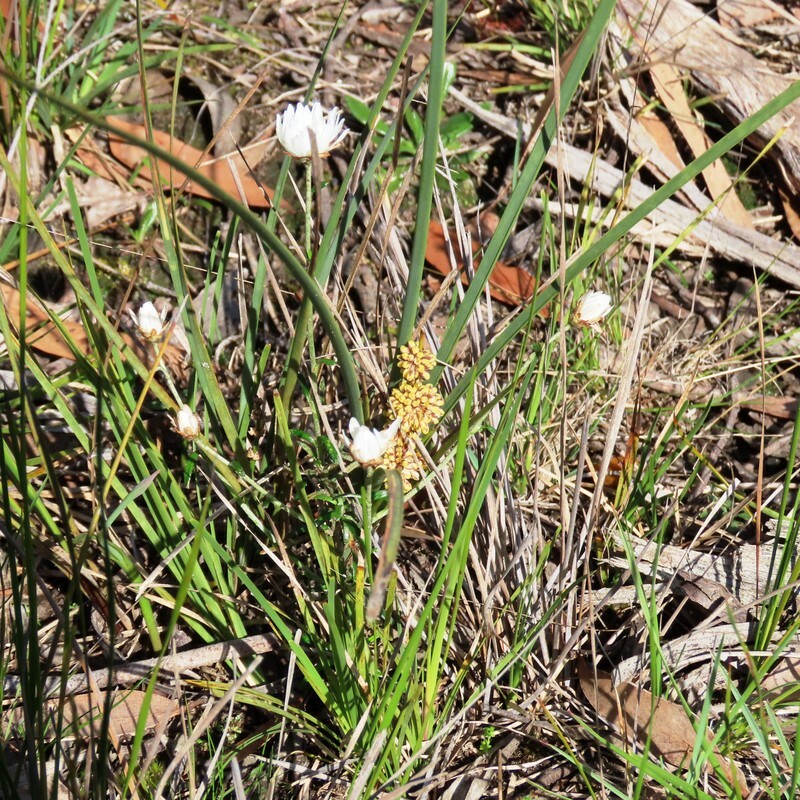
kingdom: Plantae
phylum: Tracheophyta
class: Liliopsida
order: Asparagales
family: Asparagaceae
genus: Lomandra
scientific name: Lomandra multiflora
